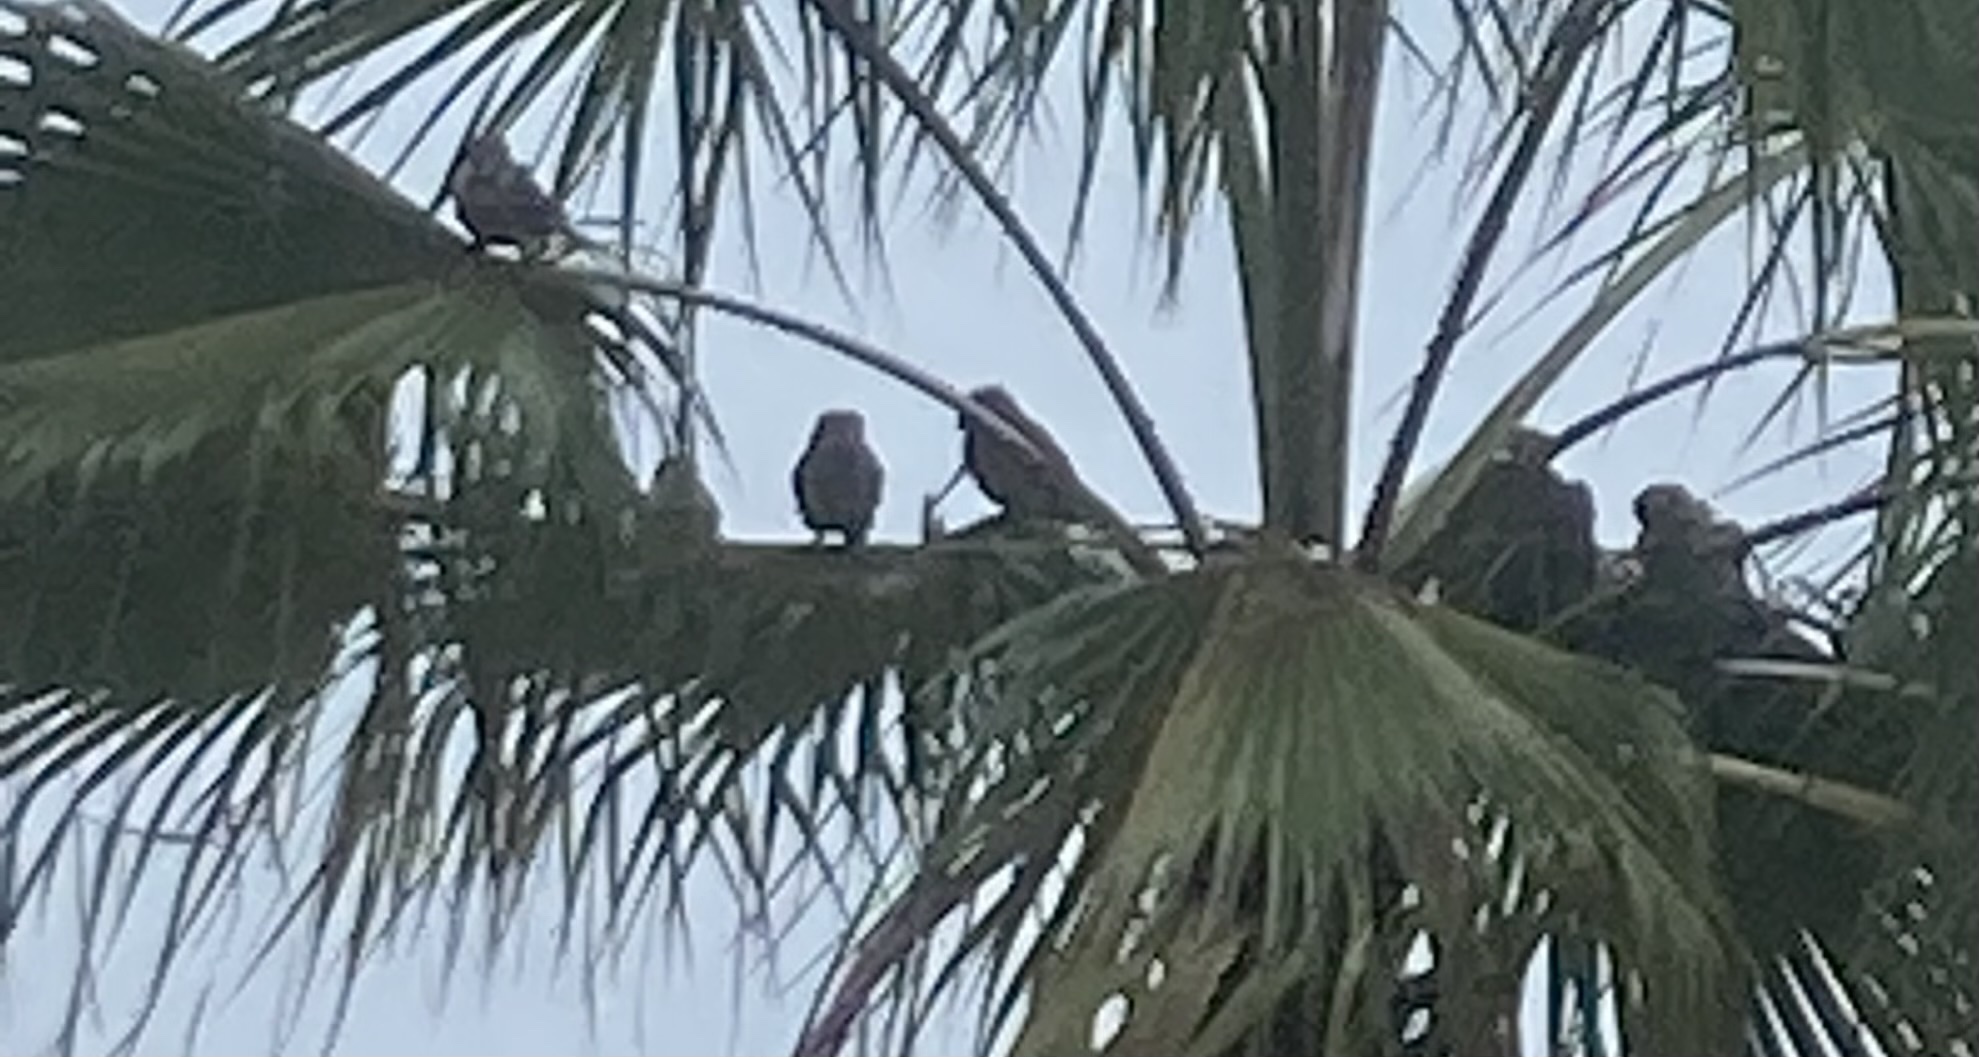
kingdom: Animalia
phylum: Chordata
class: Aves
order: Psittaciformes
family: Psittacidae
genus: Myiopsitta
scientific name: Myiopsitta monachus
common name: Monk parakeet
